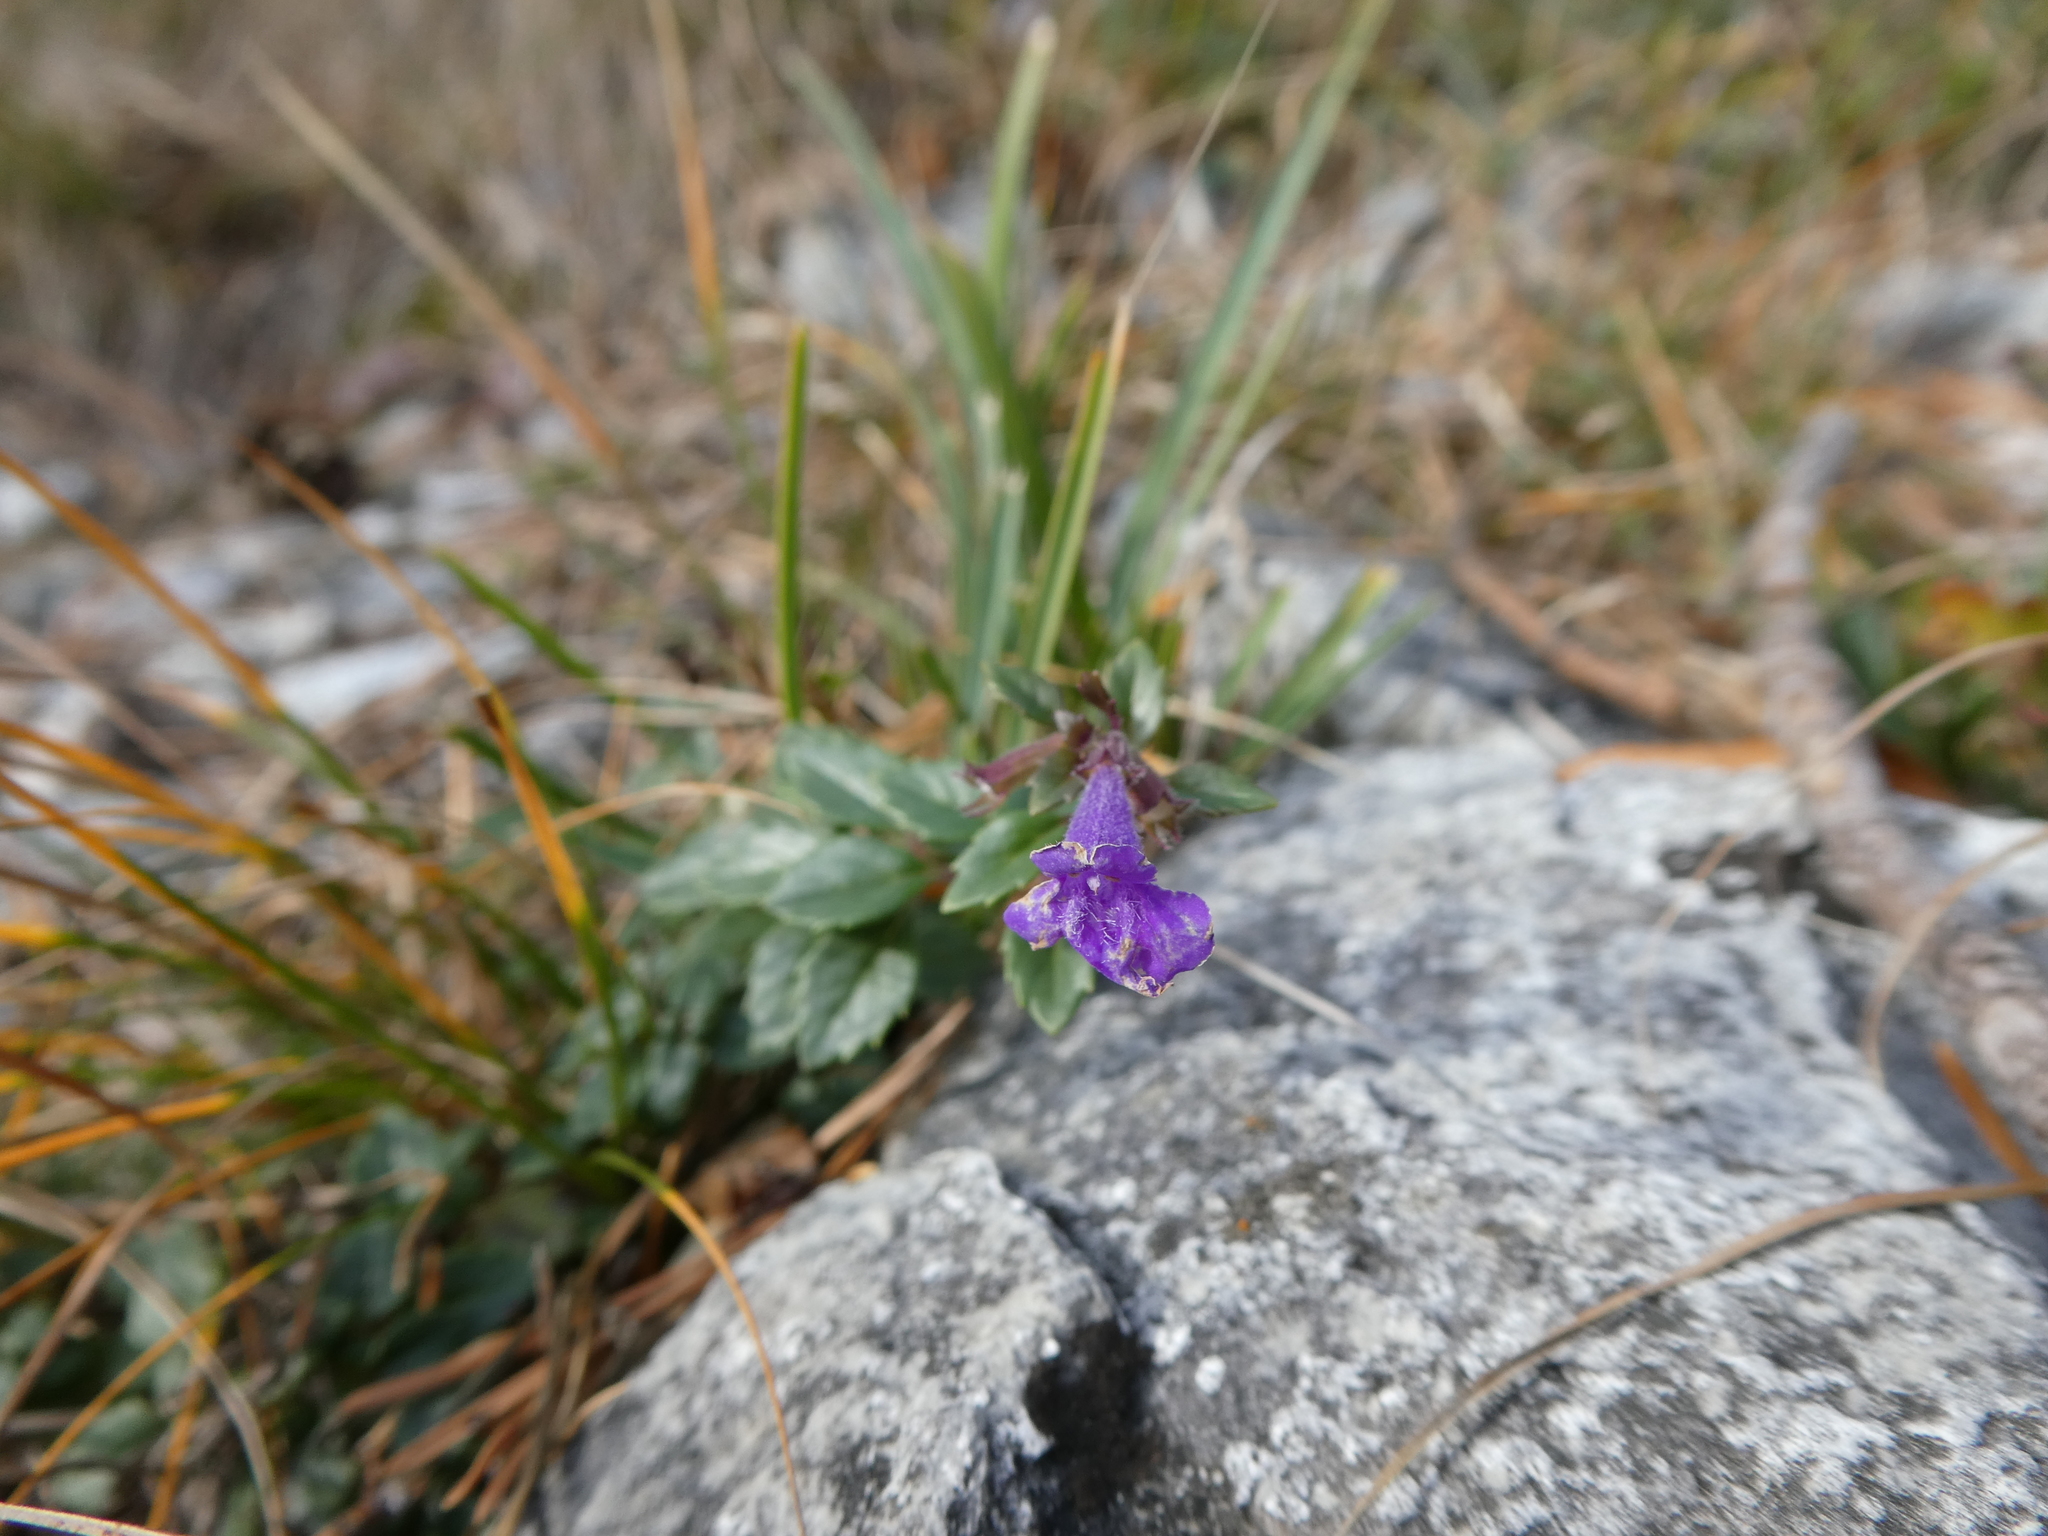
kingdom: Plantae
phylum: Tracheophyta
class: Magnoliopsida
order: Lamiales
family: Lamiaceae
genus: Clinopodium
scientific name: Clinopodium alpinum
